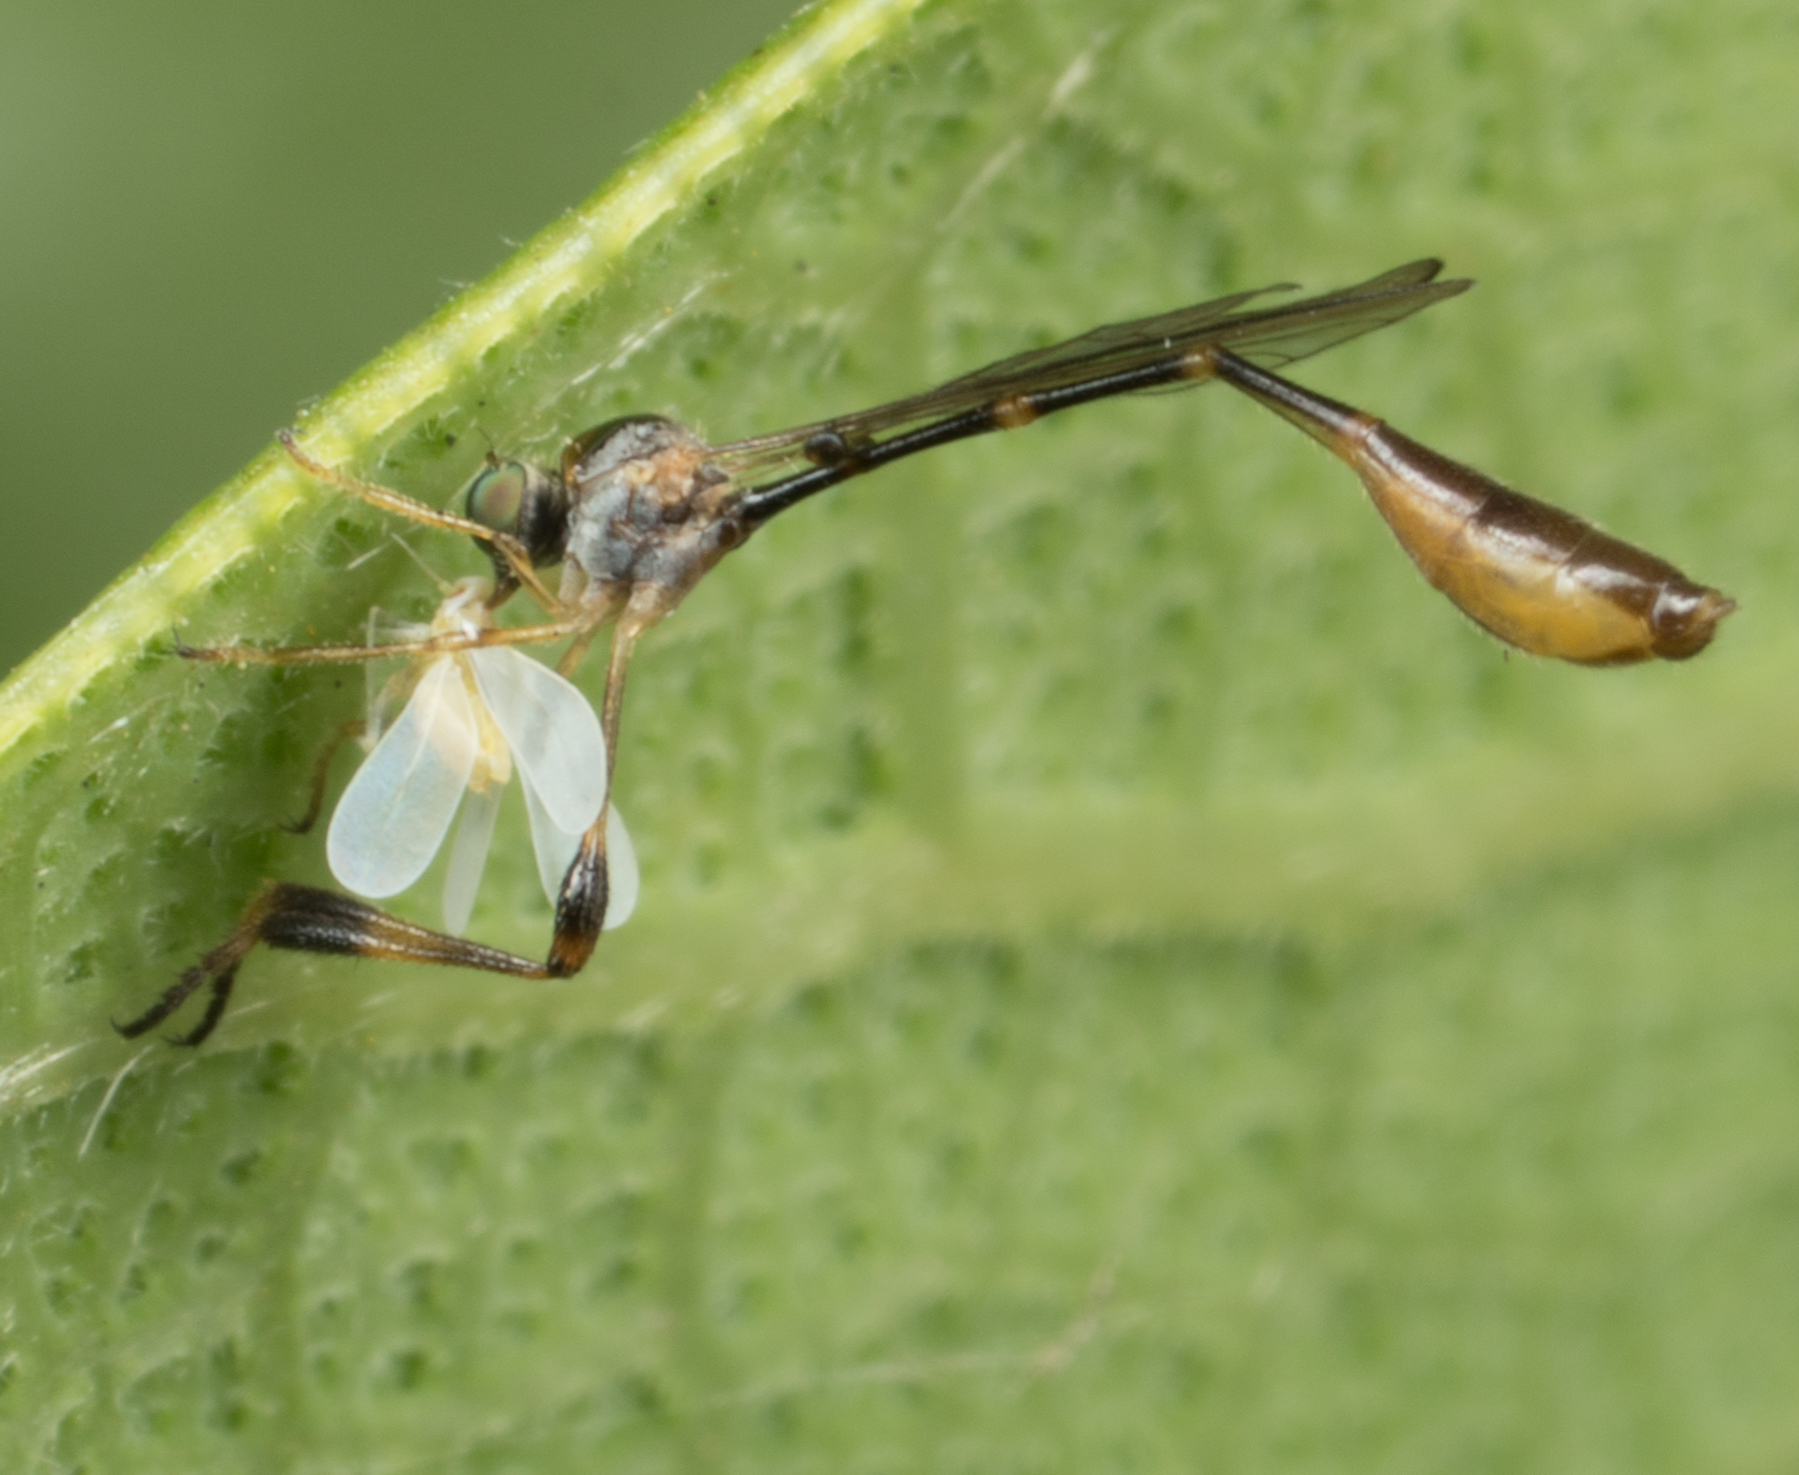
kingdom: Animalia
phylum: Arthropoda
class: Insecta
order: Diptera
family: Asilidae
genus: Leptopteromyia
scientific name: Leptopteromyia americana
